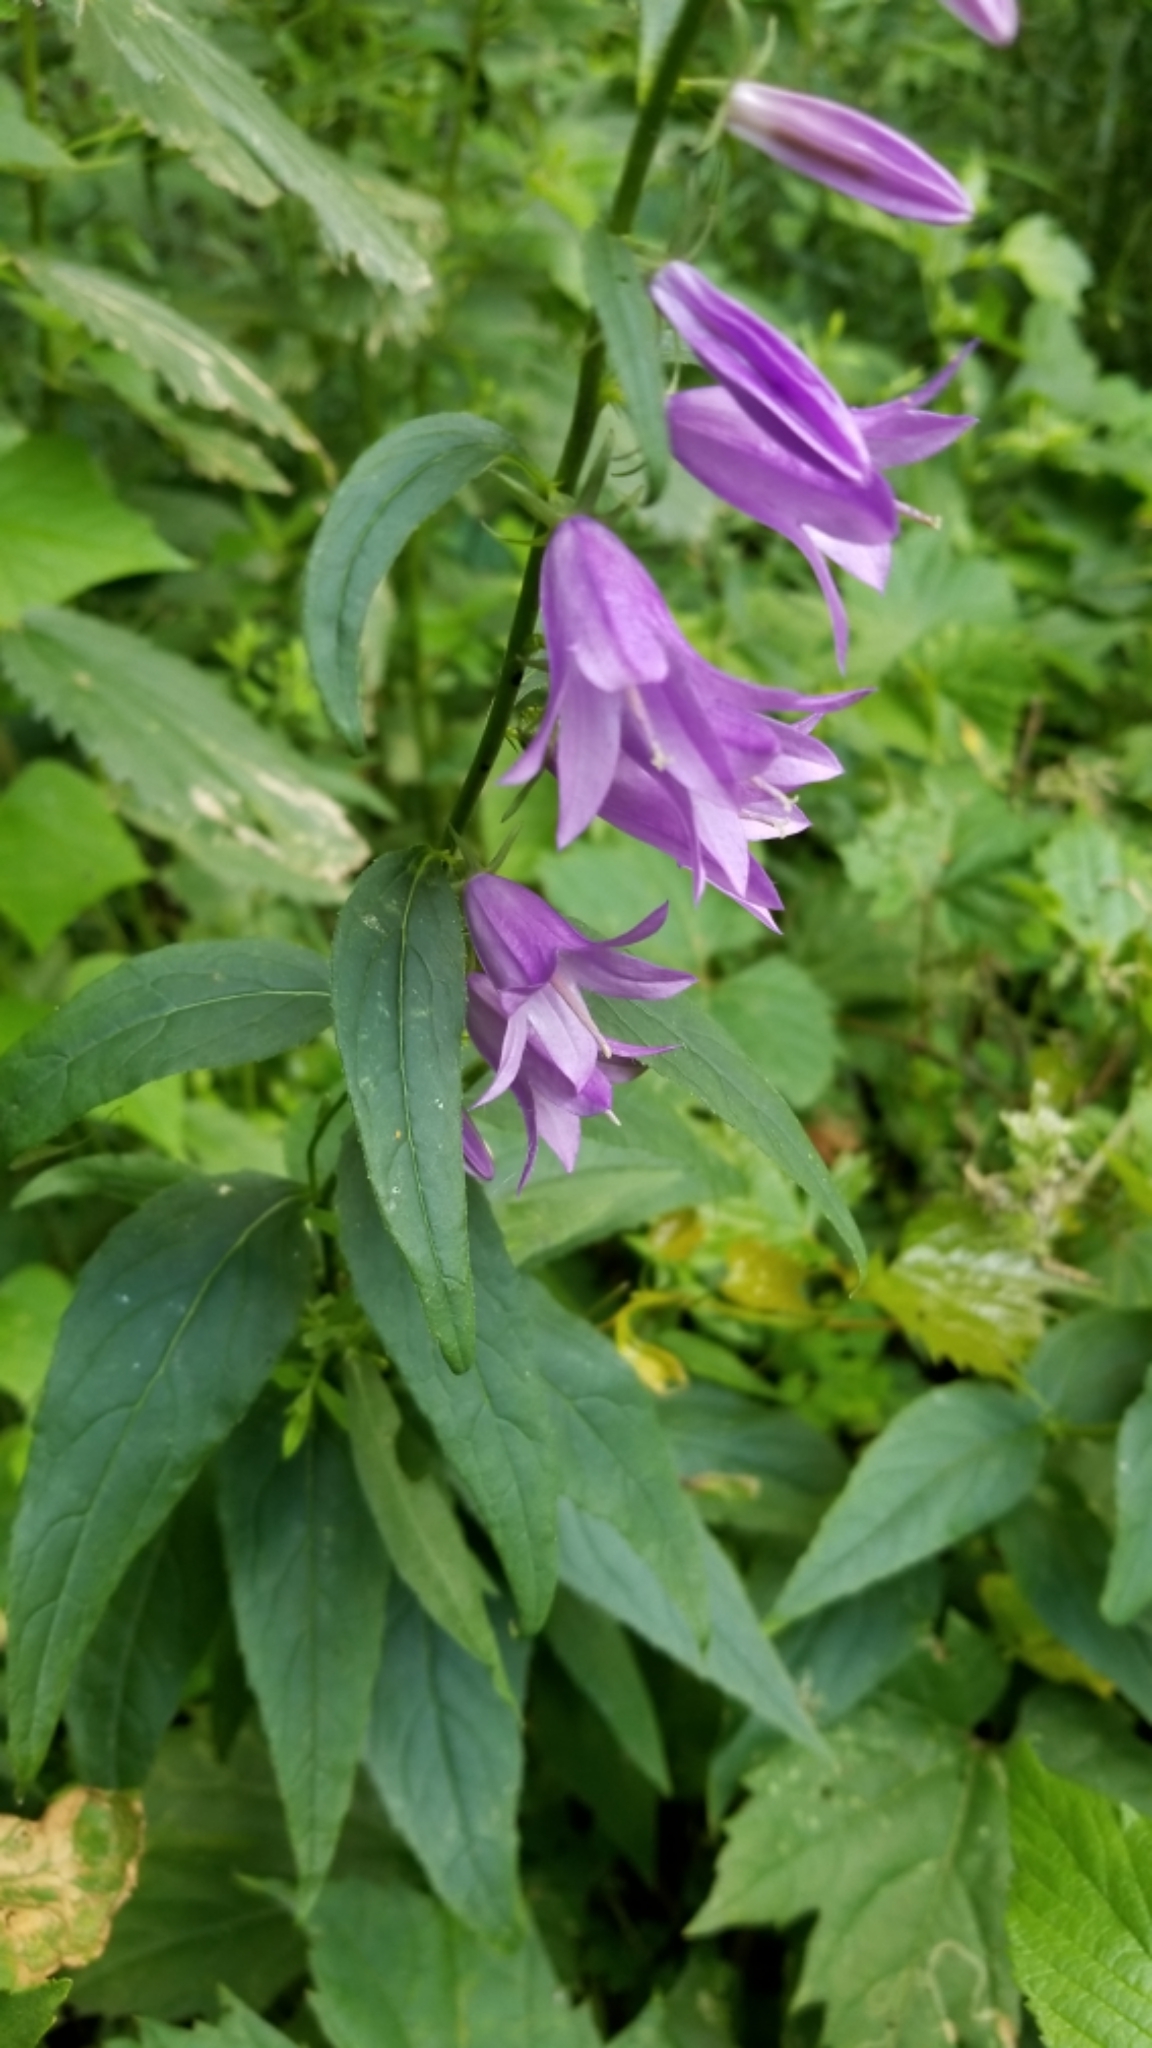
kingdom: Plantae
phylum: Tracheophyta
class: Magnoliopsida
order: Asterales
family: Campanulaceae
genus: Campanula
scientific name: Campanula rapunculoides
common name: Creeping bellflower
